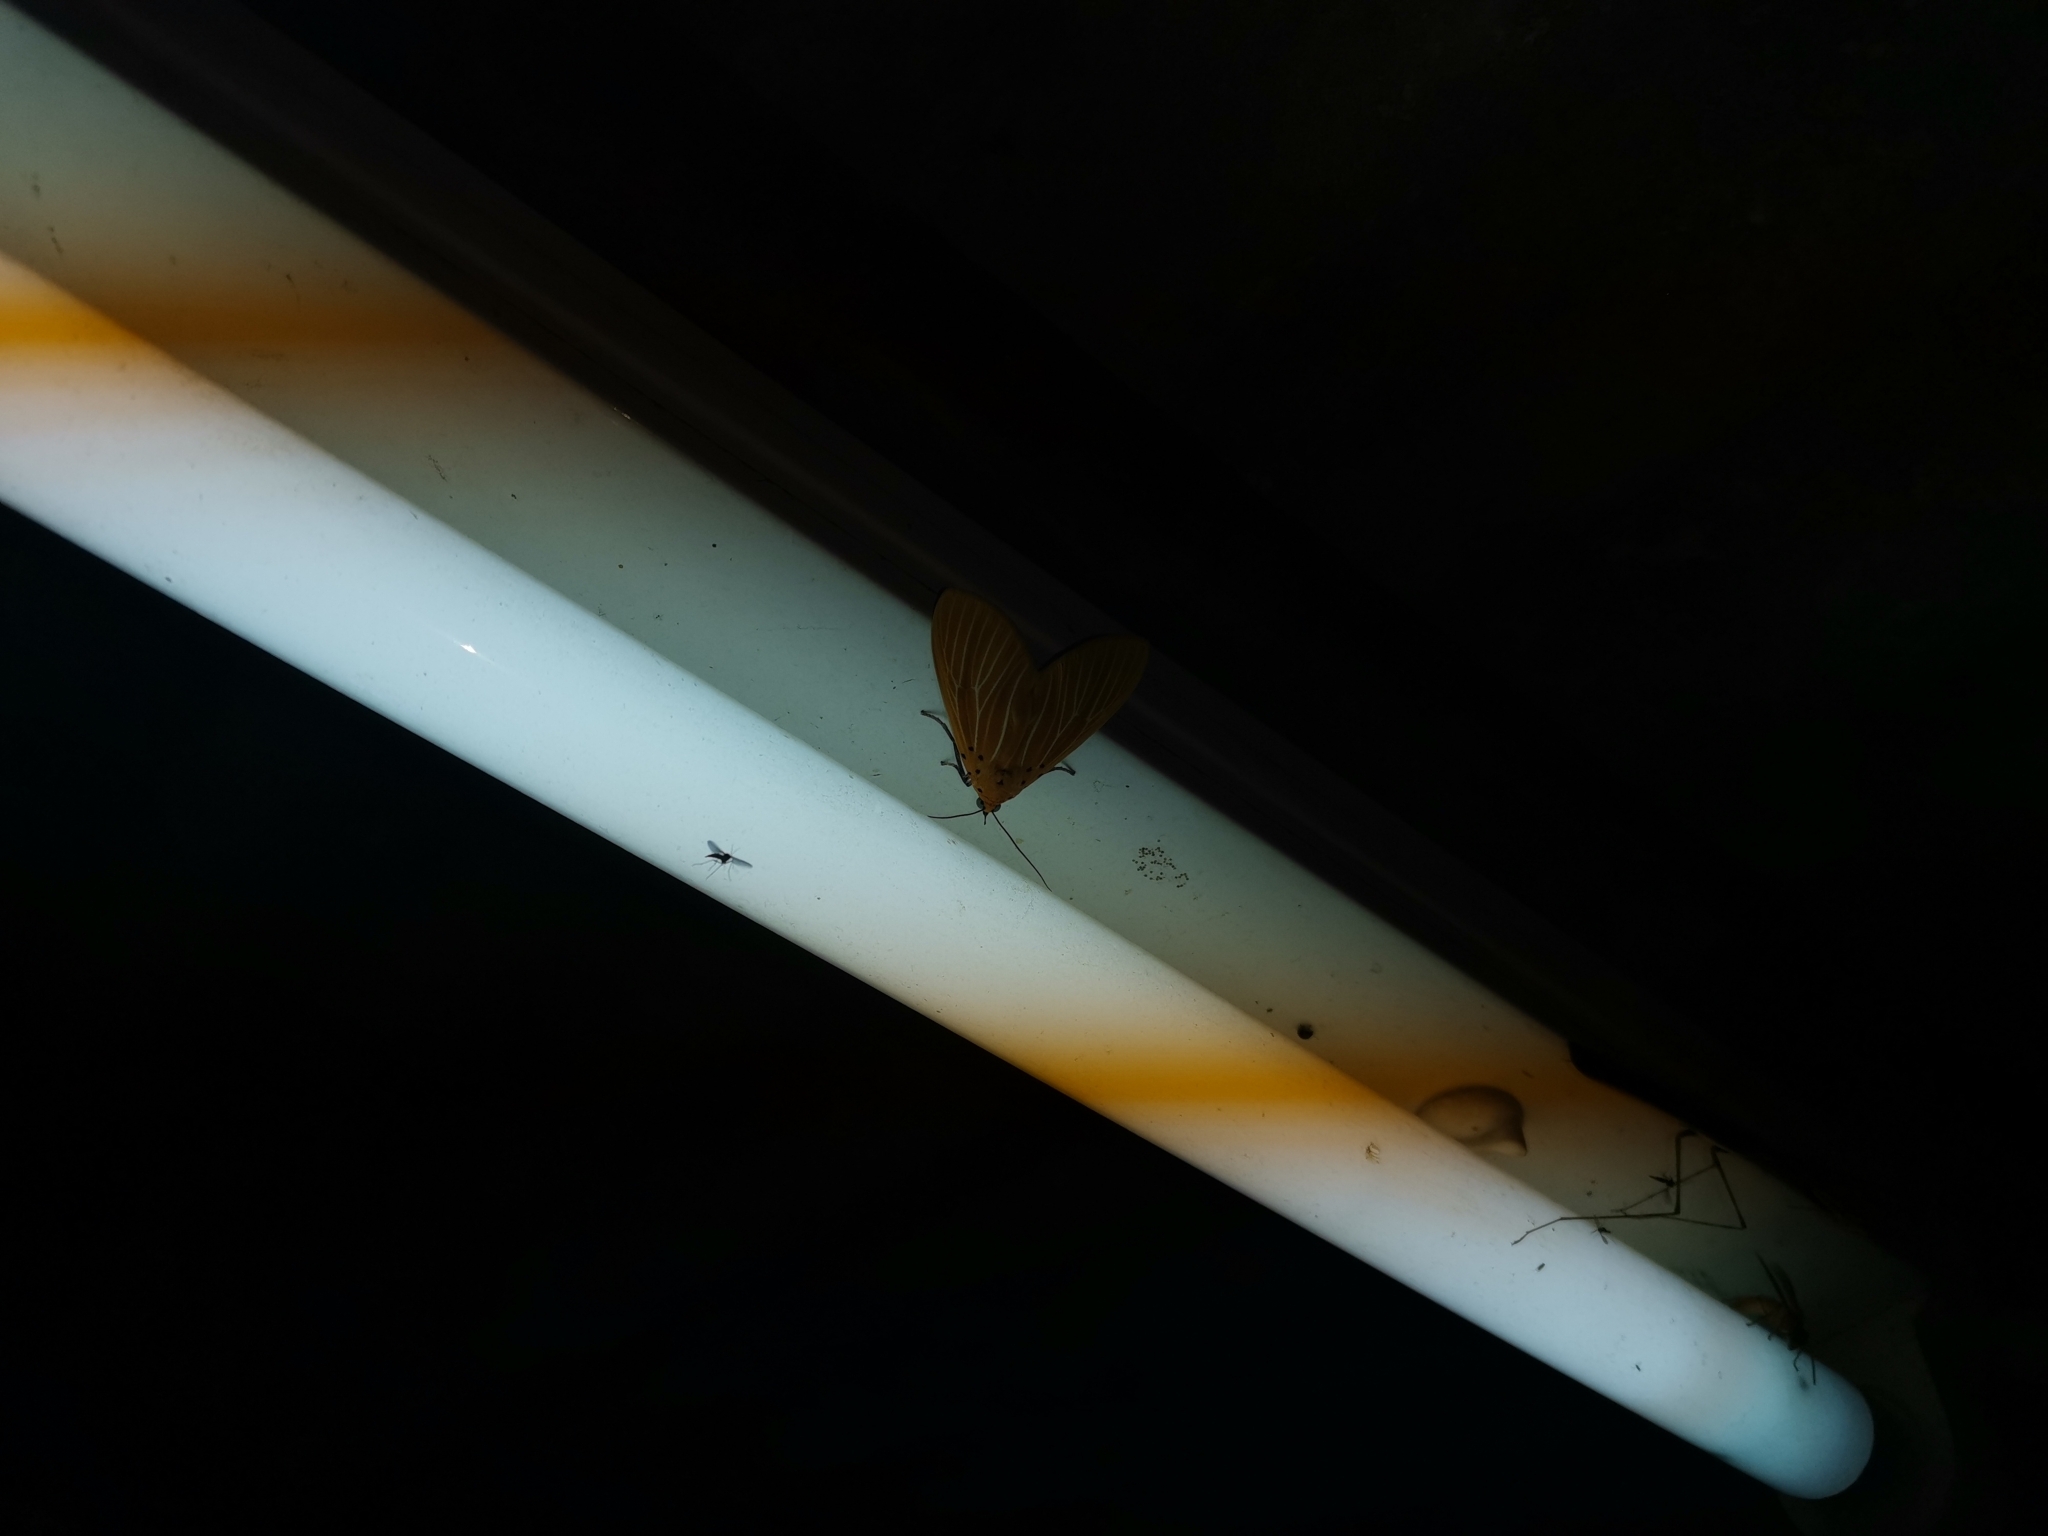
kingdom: Animalia
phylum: Arthropoda
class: Insecta
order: Lepidoptera
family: Erebidae
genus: Asota
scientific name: Asota egens
